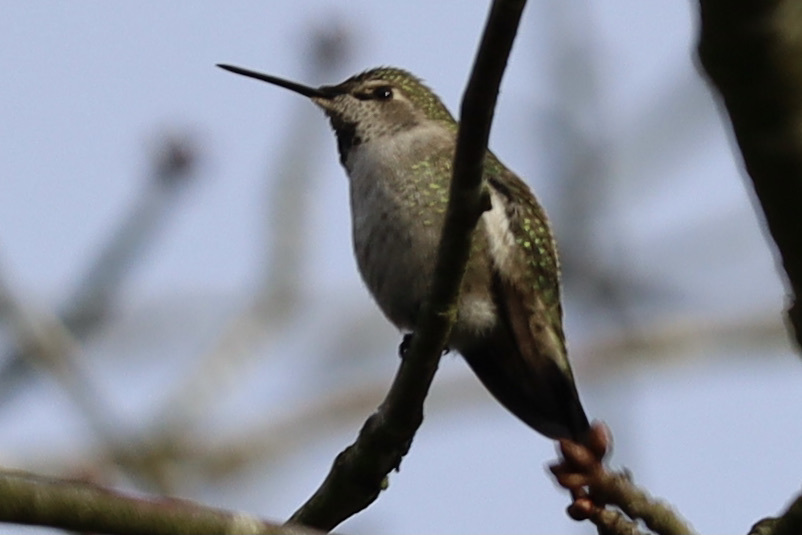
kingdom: Animalia
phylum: Chordata
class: Aves
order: Apodiformes
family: Trochilidae
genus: Calypte
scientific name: Calypte anna
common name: Anna's hummingbird
